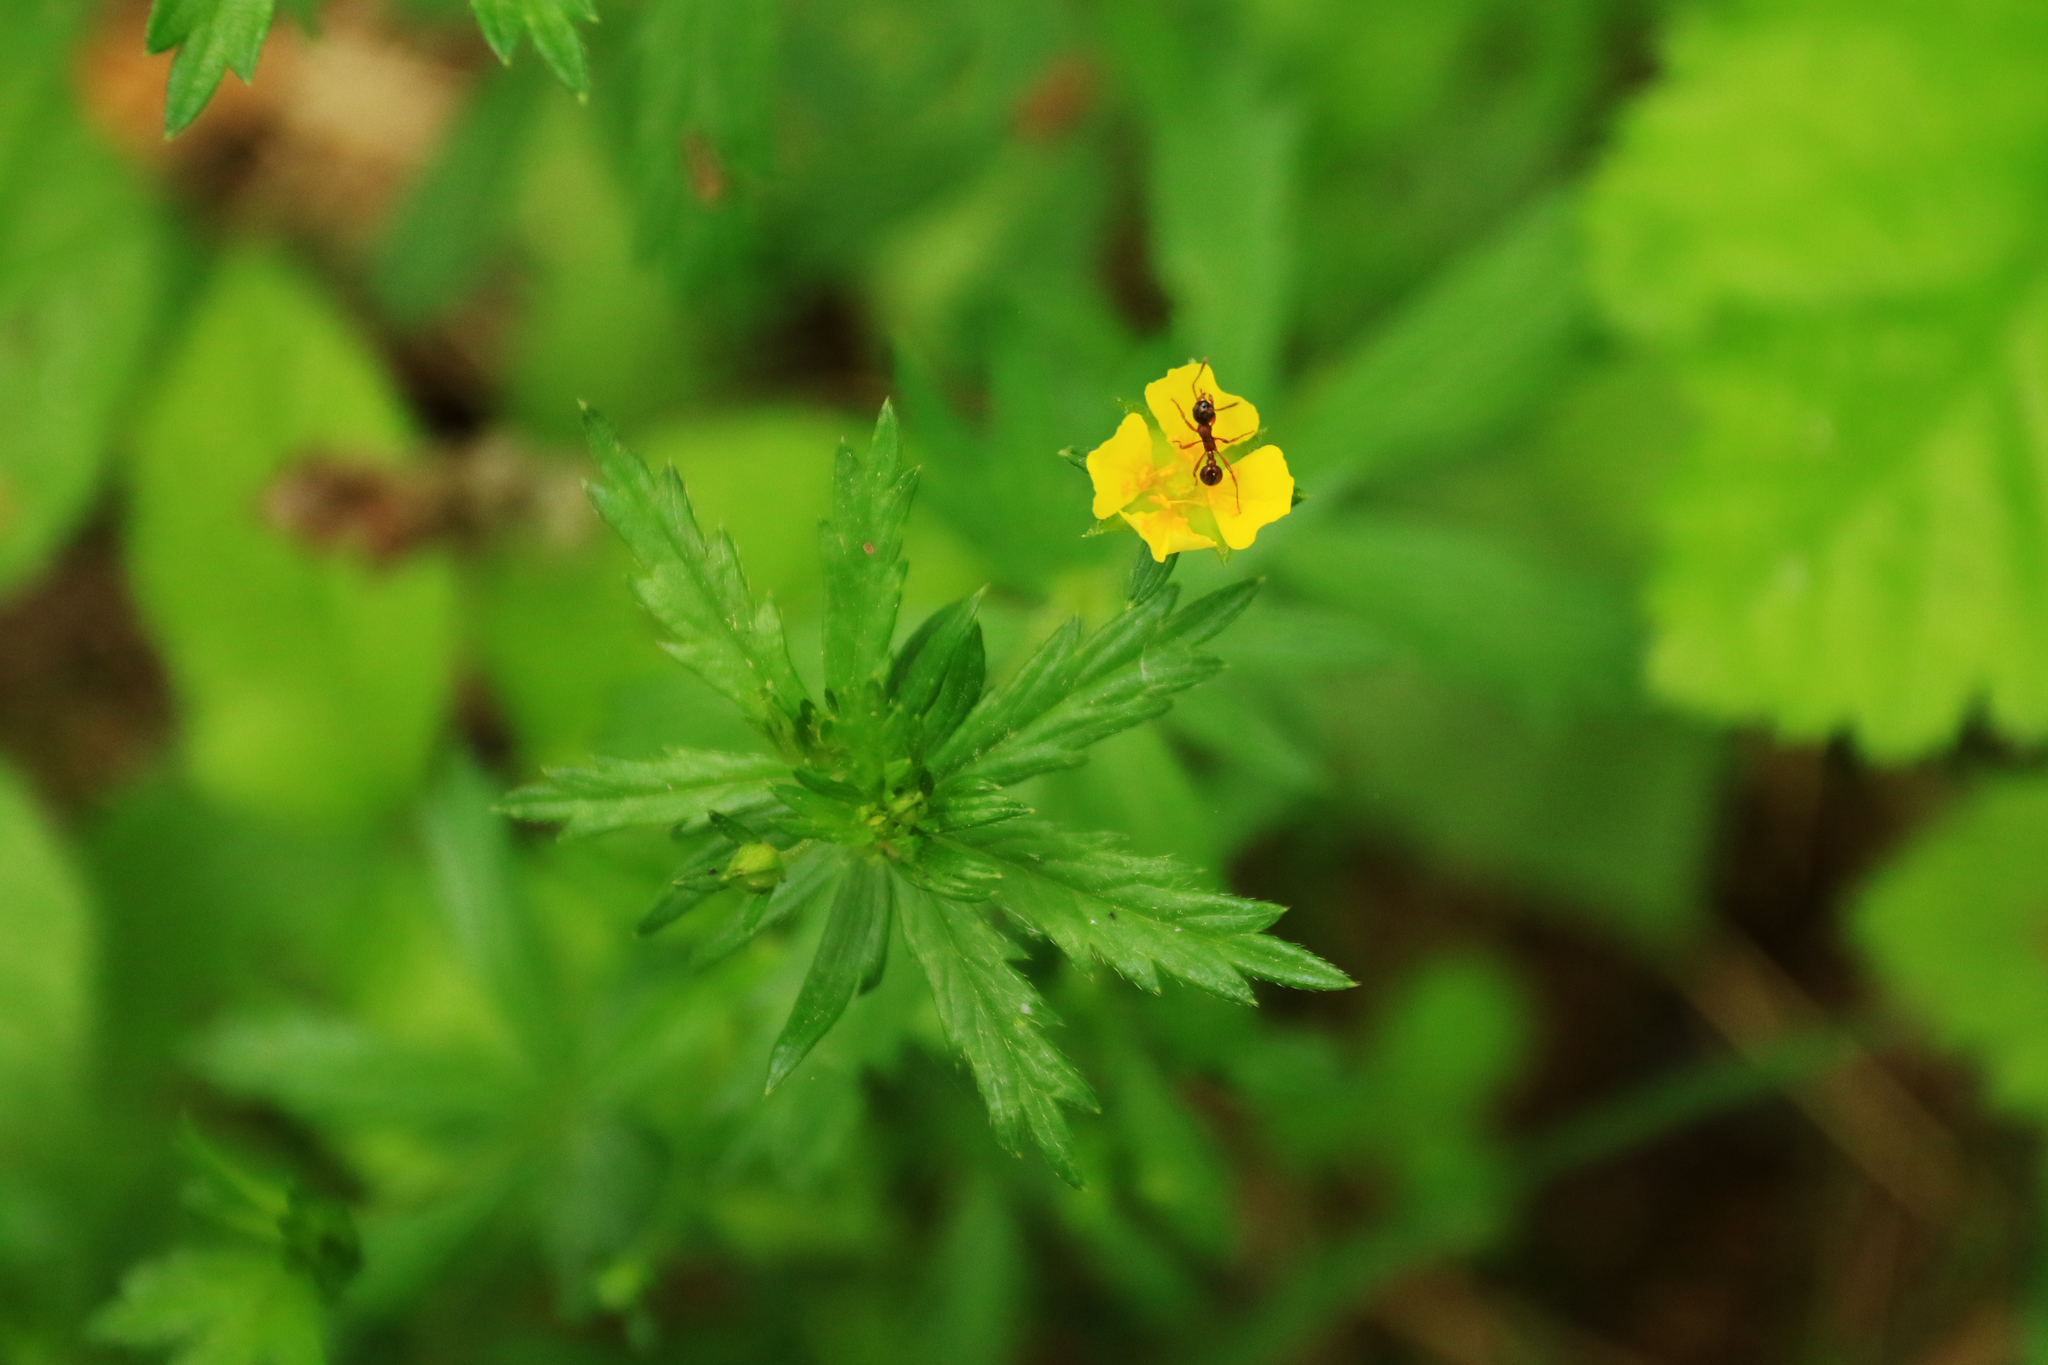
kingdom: Plantae
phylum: Tracheophyta
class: Magnoliopsida
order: Rosales
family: Rosaceae
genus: Potentilla
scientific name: Potentilla erecta
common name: Tormentil
